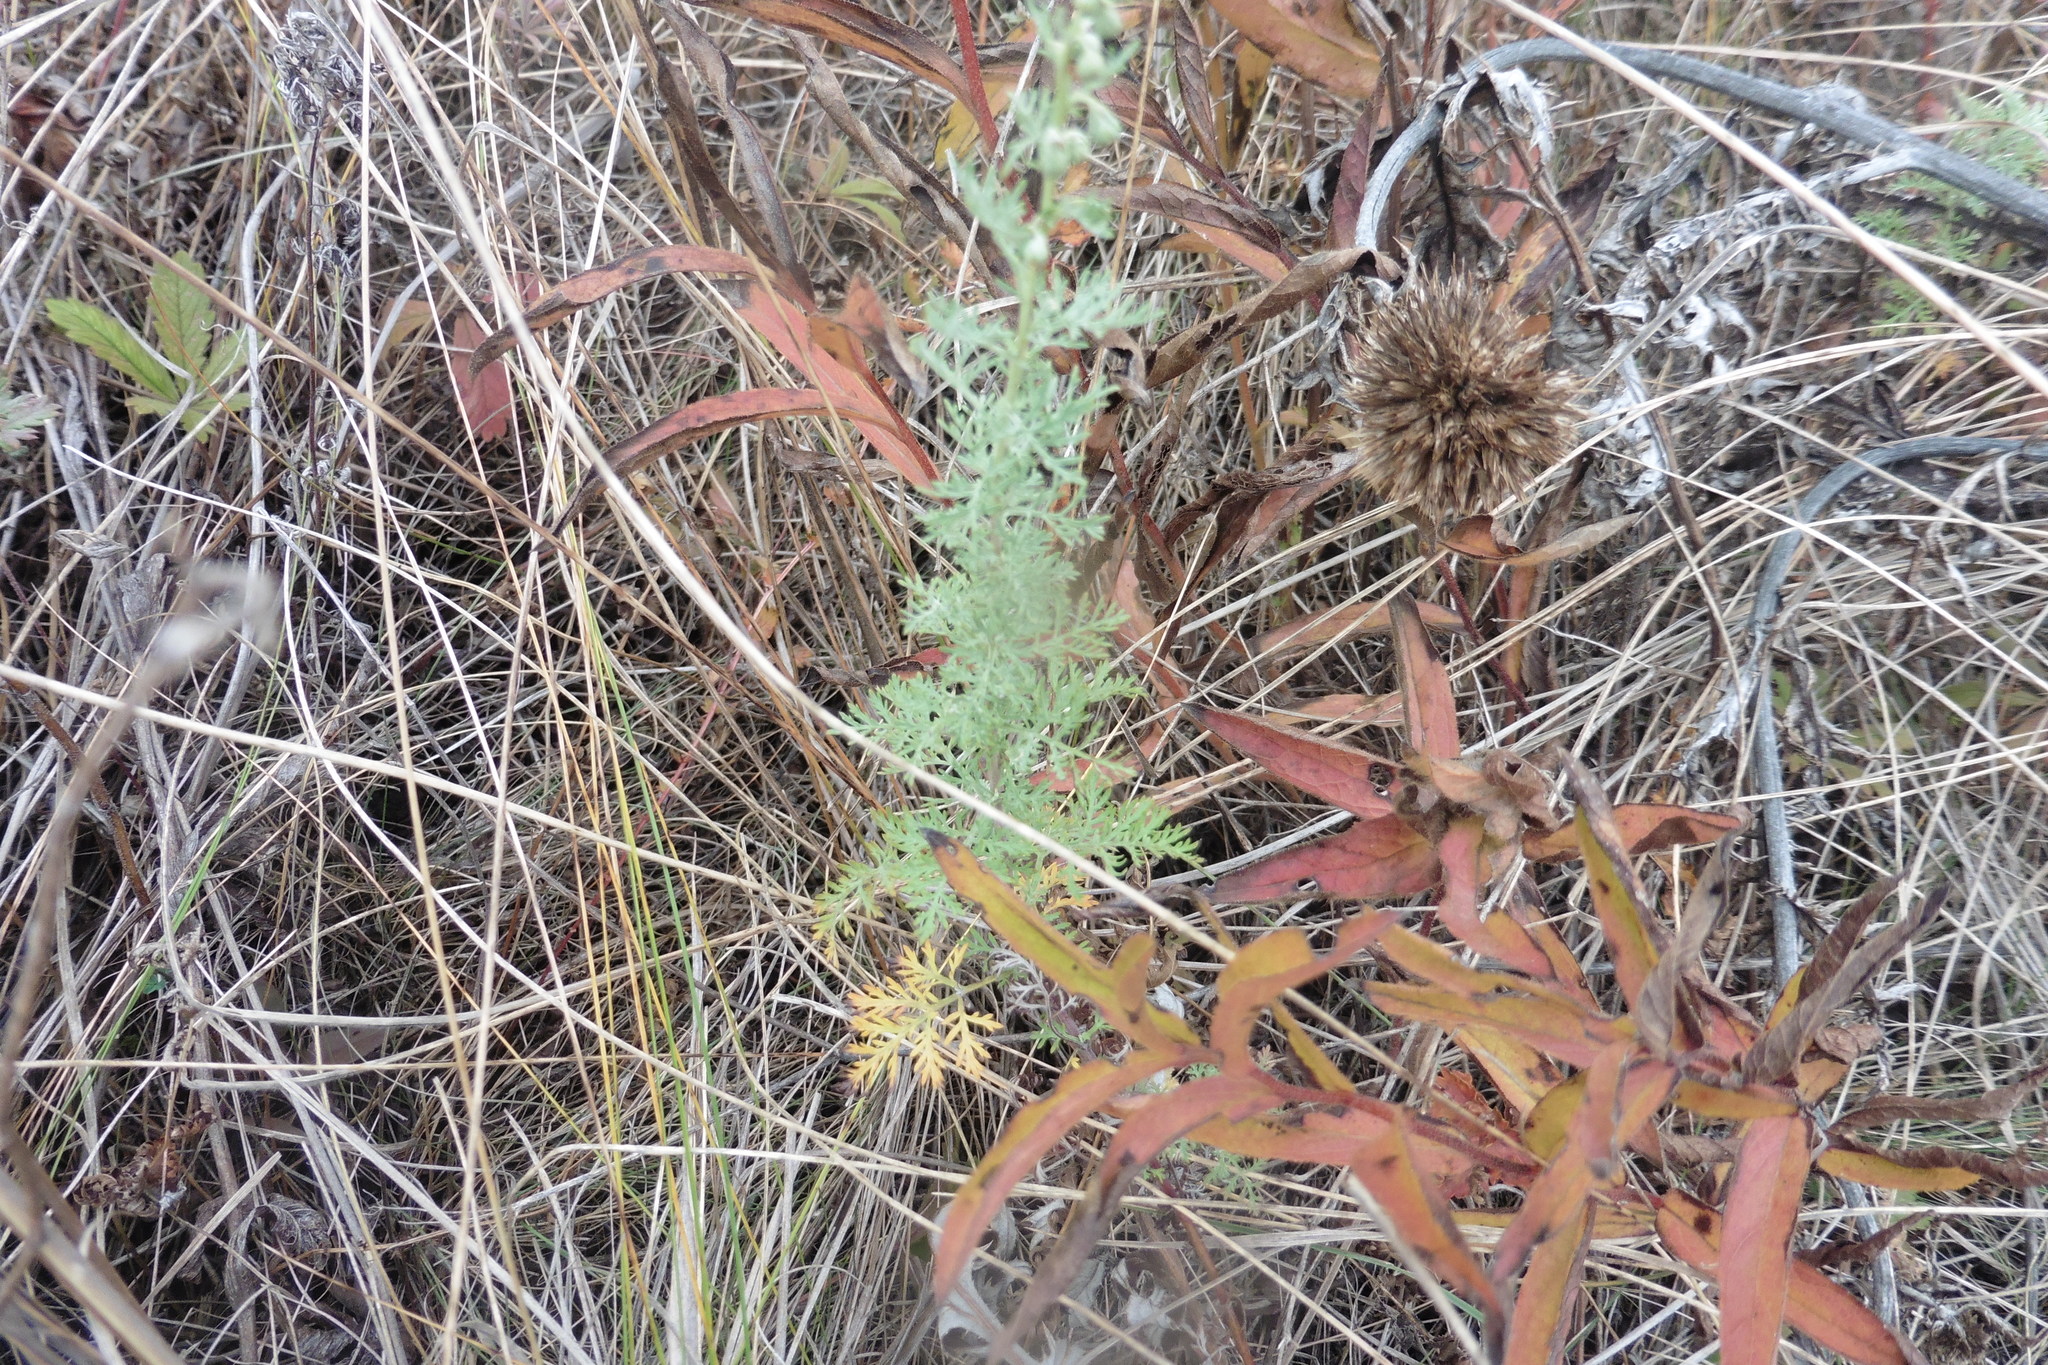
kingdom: Plantae
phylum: Tracheophyta
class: Magnoliopsida
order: Asterales
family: Asteraceae
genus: Artemisia
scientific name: Artemisia pontica
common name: Roman wormwood
